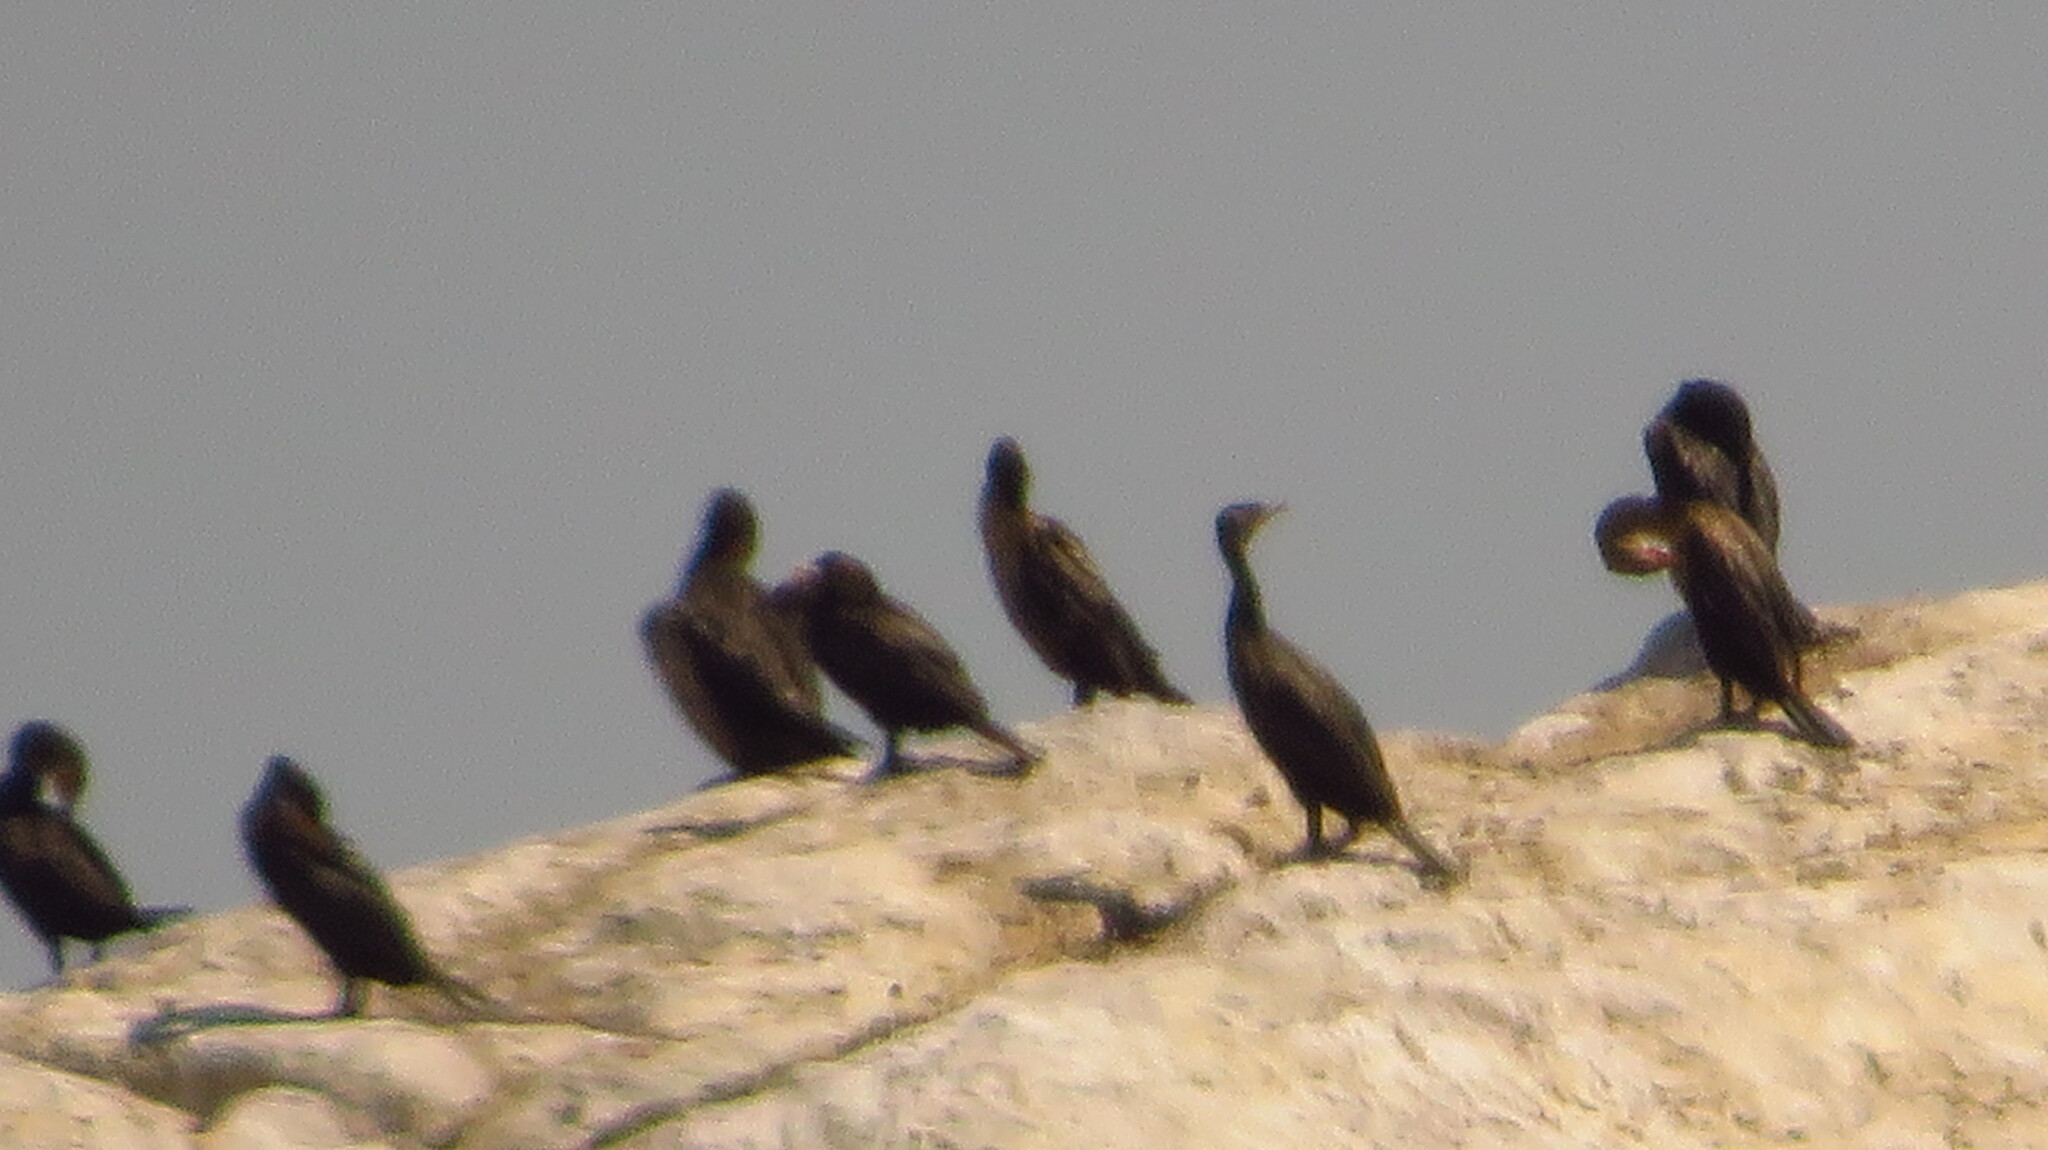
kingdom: Animalia
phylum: Chordata
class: Aves
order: Suliformes
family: Phalacrocoracidae
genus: Phalacrocorax
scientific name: Phalacrocorax auritus
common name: Double-crested cormorant
